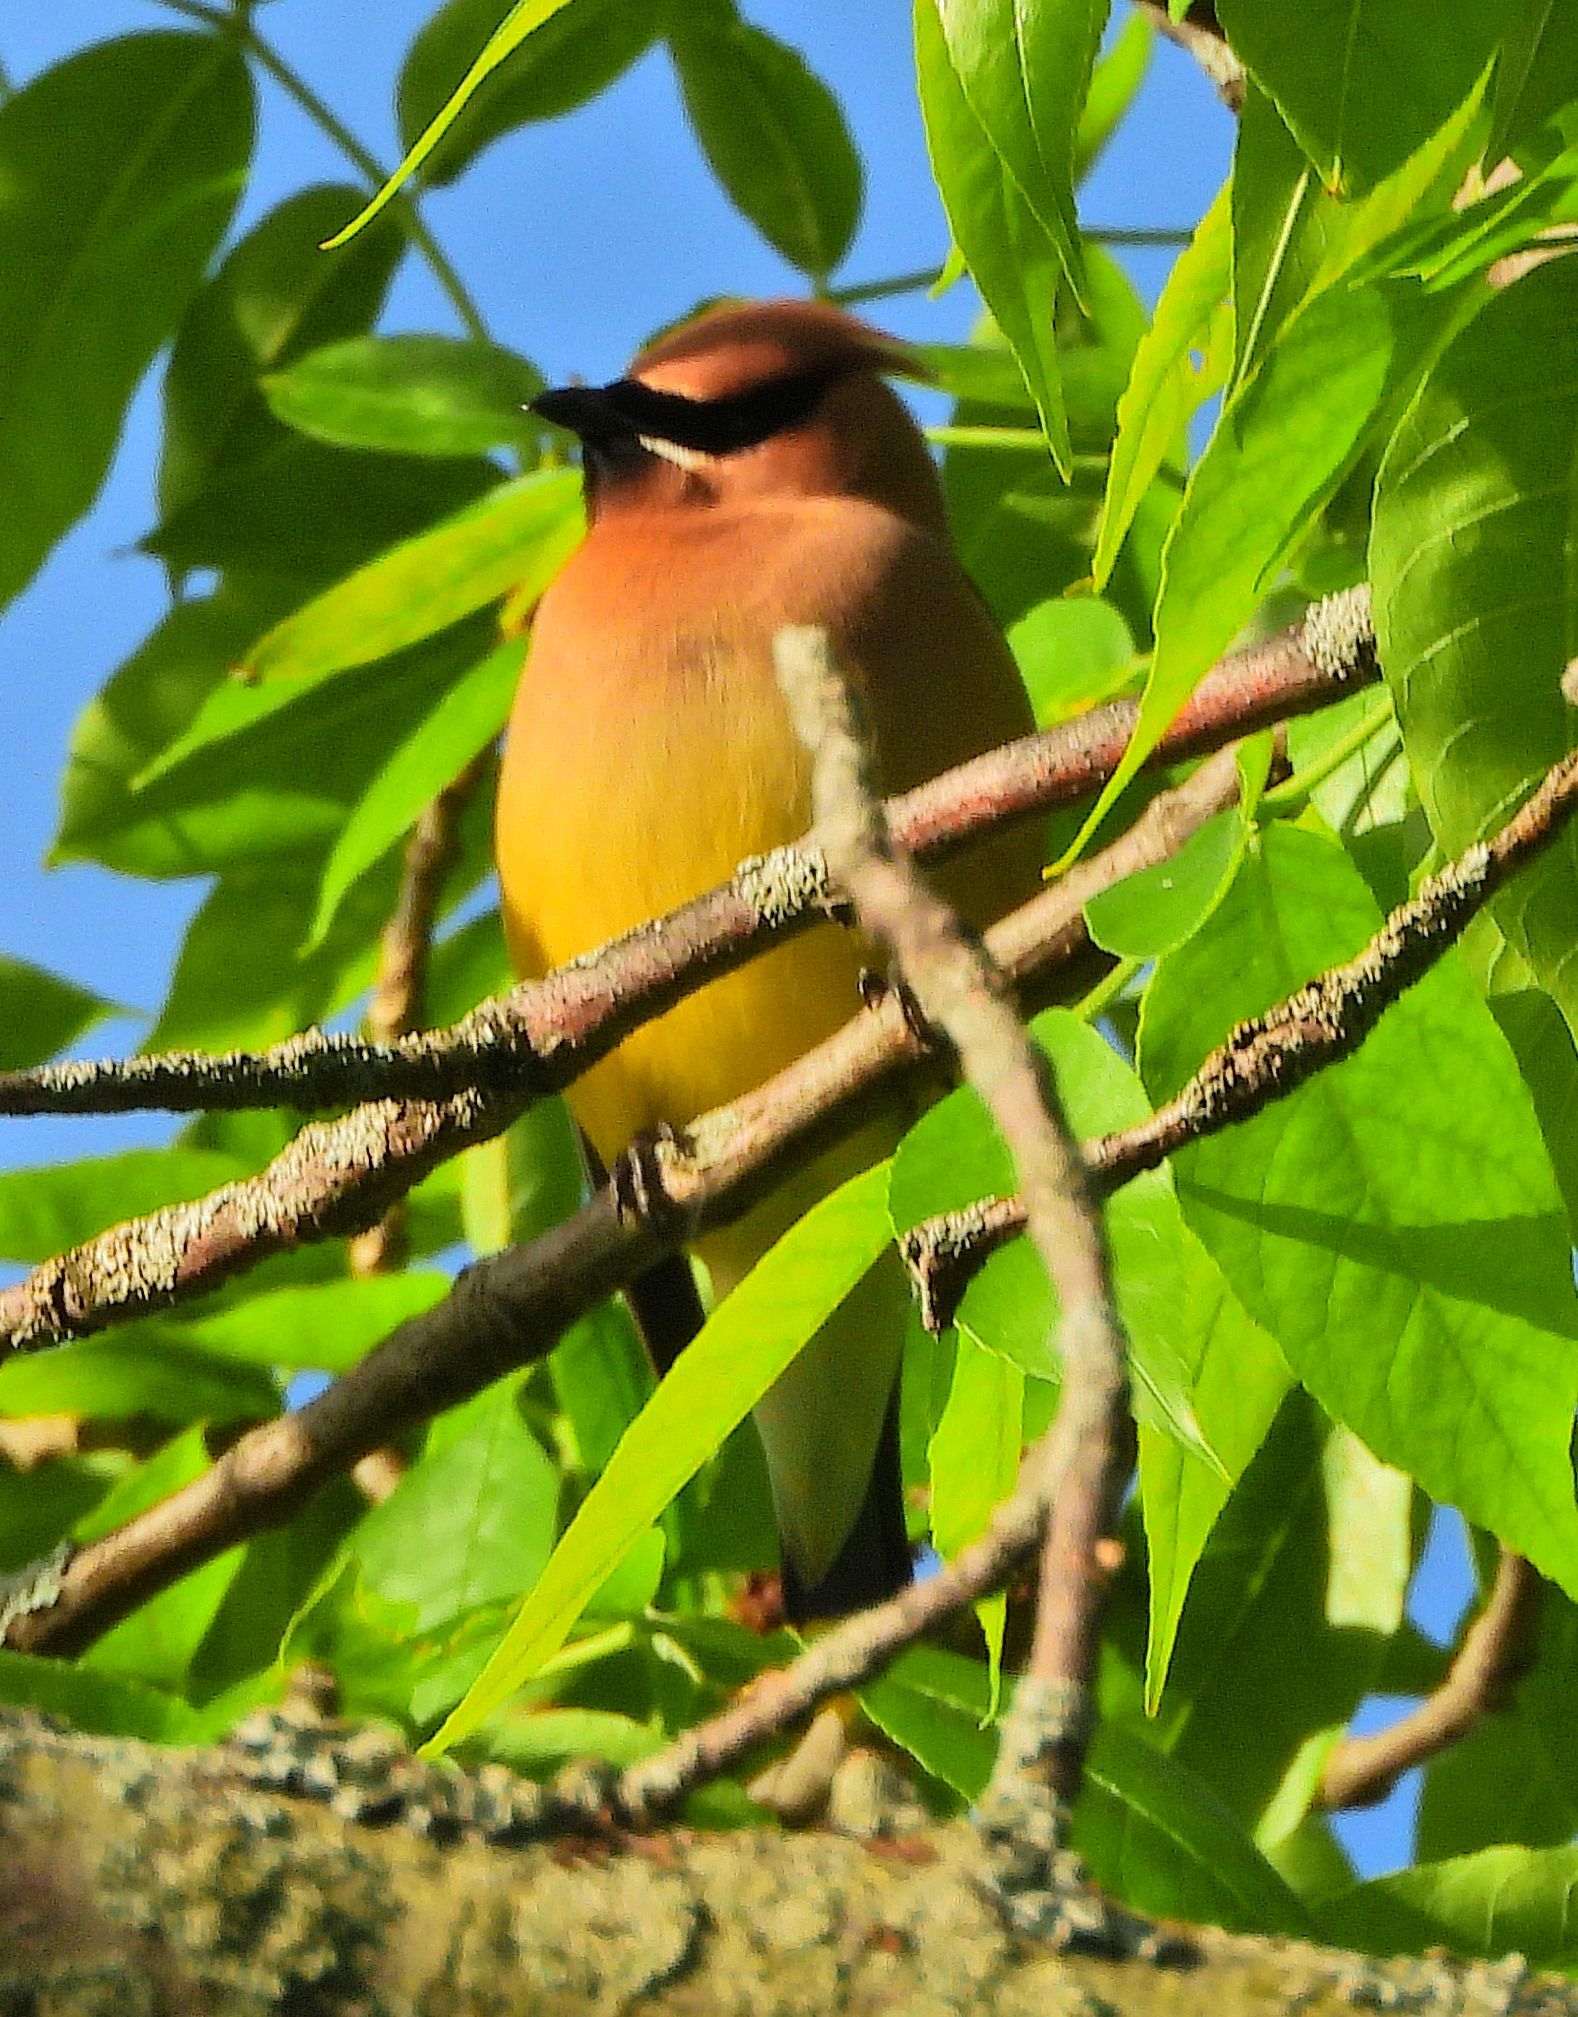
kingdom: Animalia
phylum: Chordata
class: Aves
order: Passeriformes
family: Bombycillidae
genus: Bombycilla
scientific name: Bombycilla cedrorum
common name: Cedar waxwing
